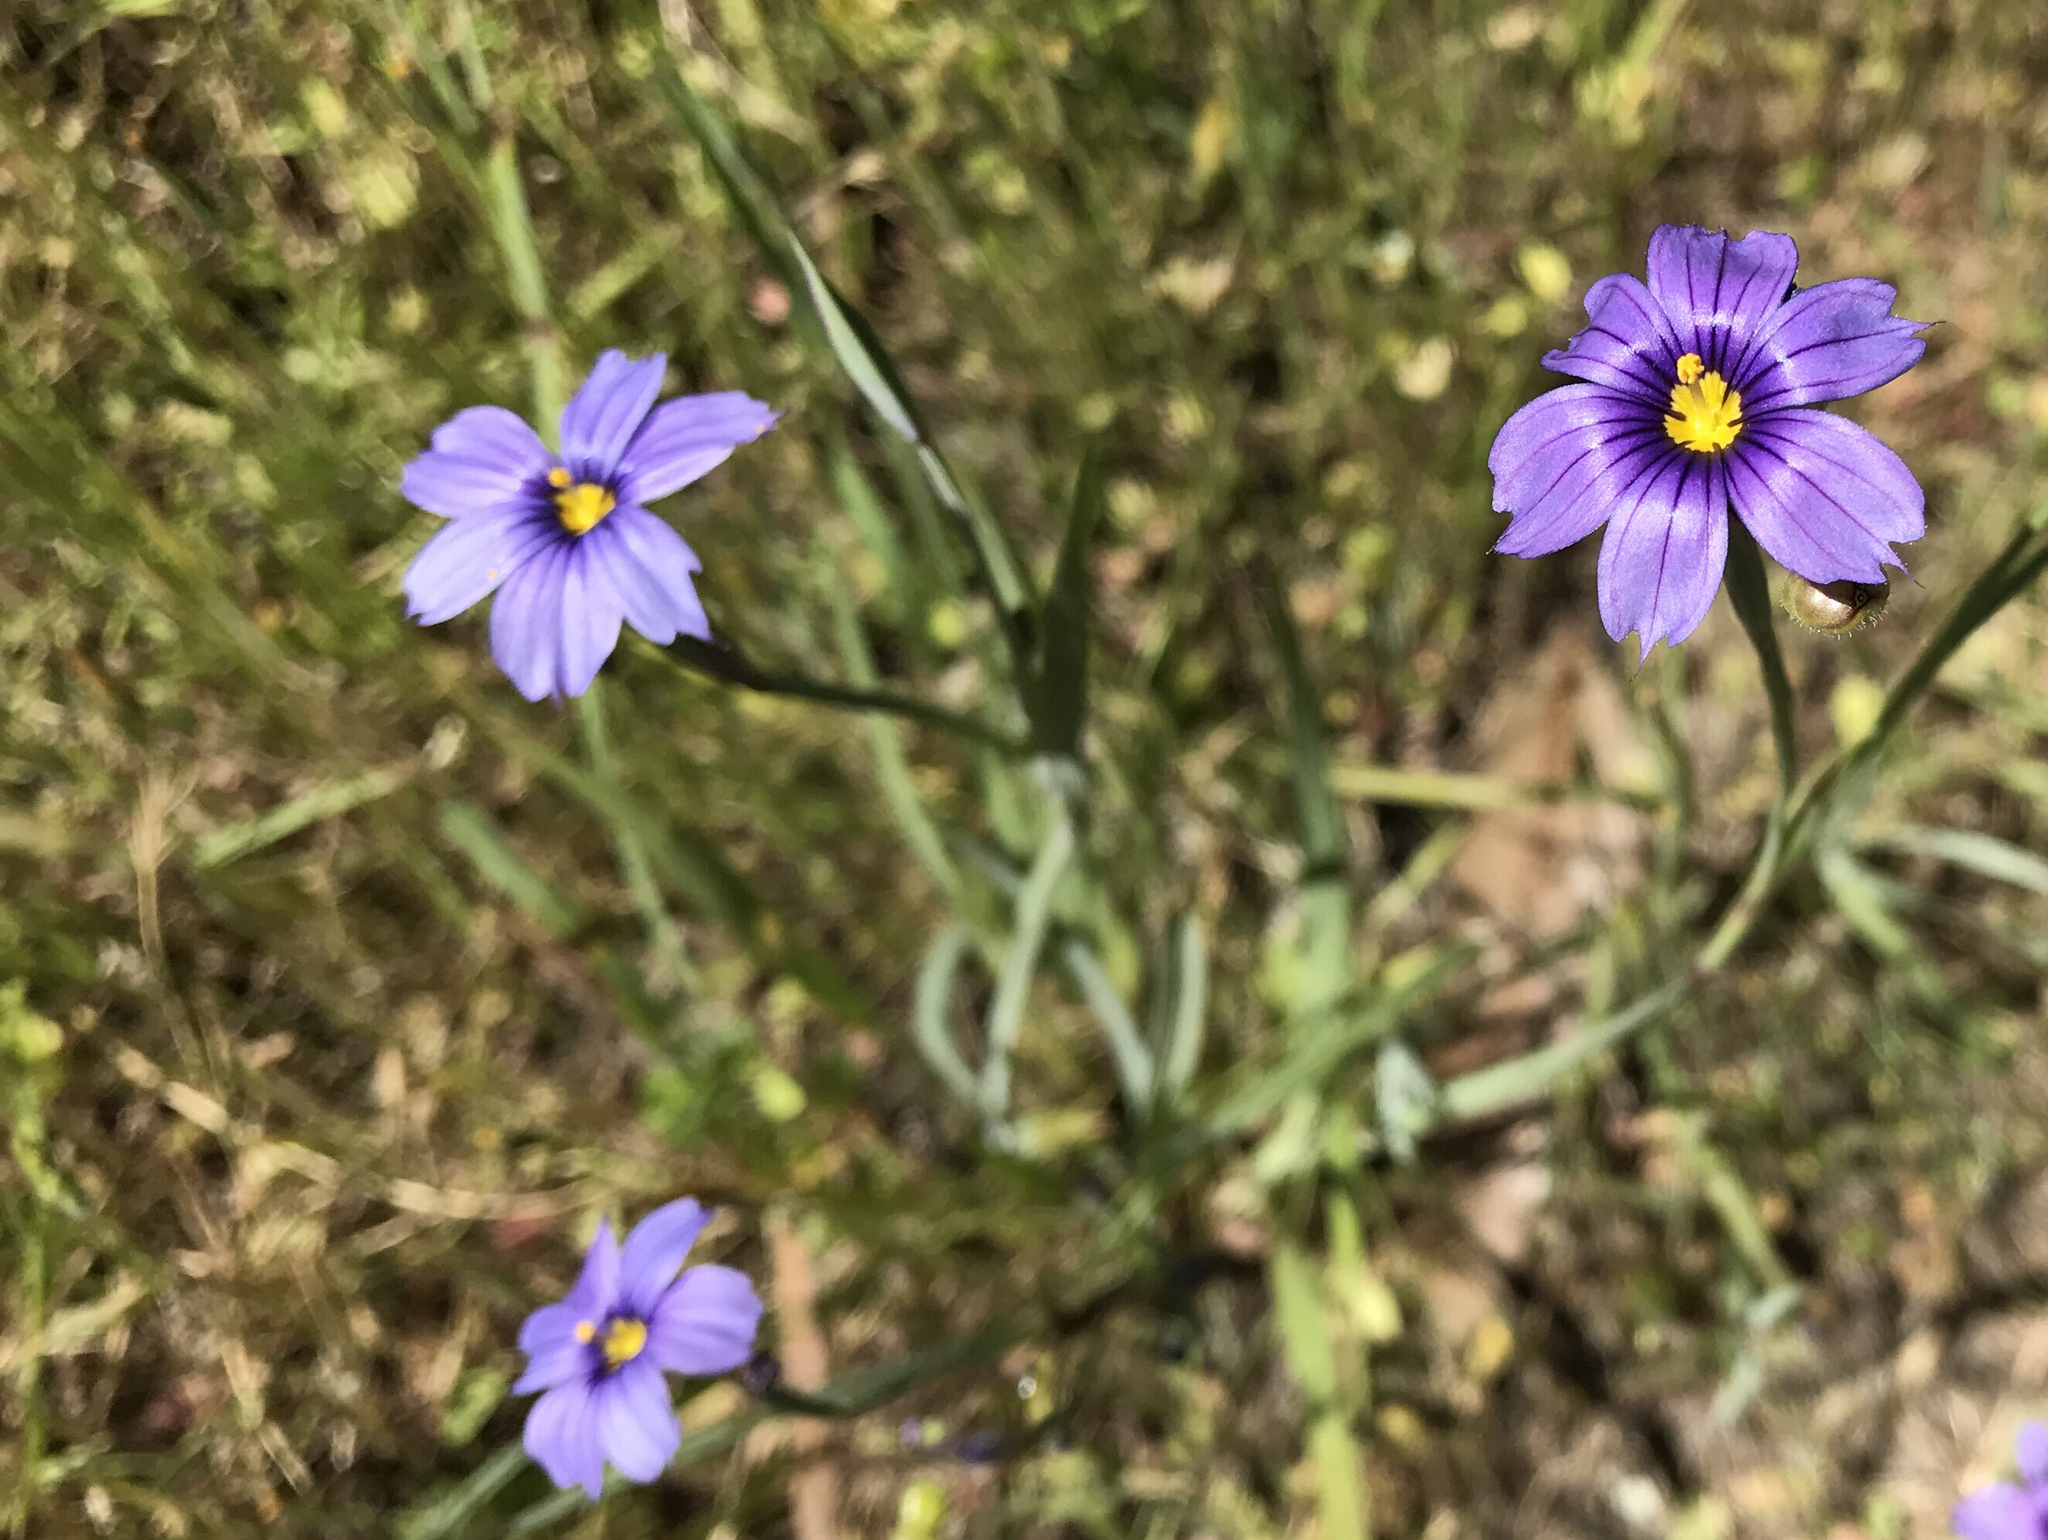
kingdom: Plantae
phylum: Tracheophyta
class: Liliopsida
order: Asparagales
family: Iridaceae
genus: Sisyrinchium
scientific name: Sisyrinchium bellum
